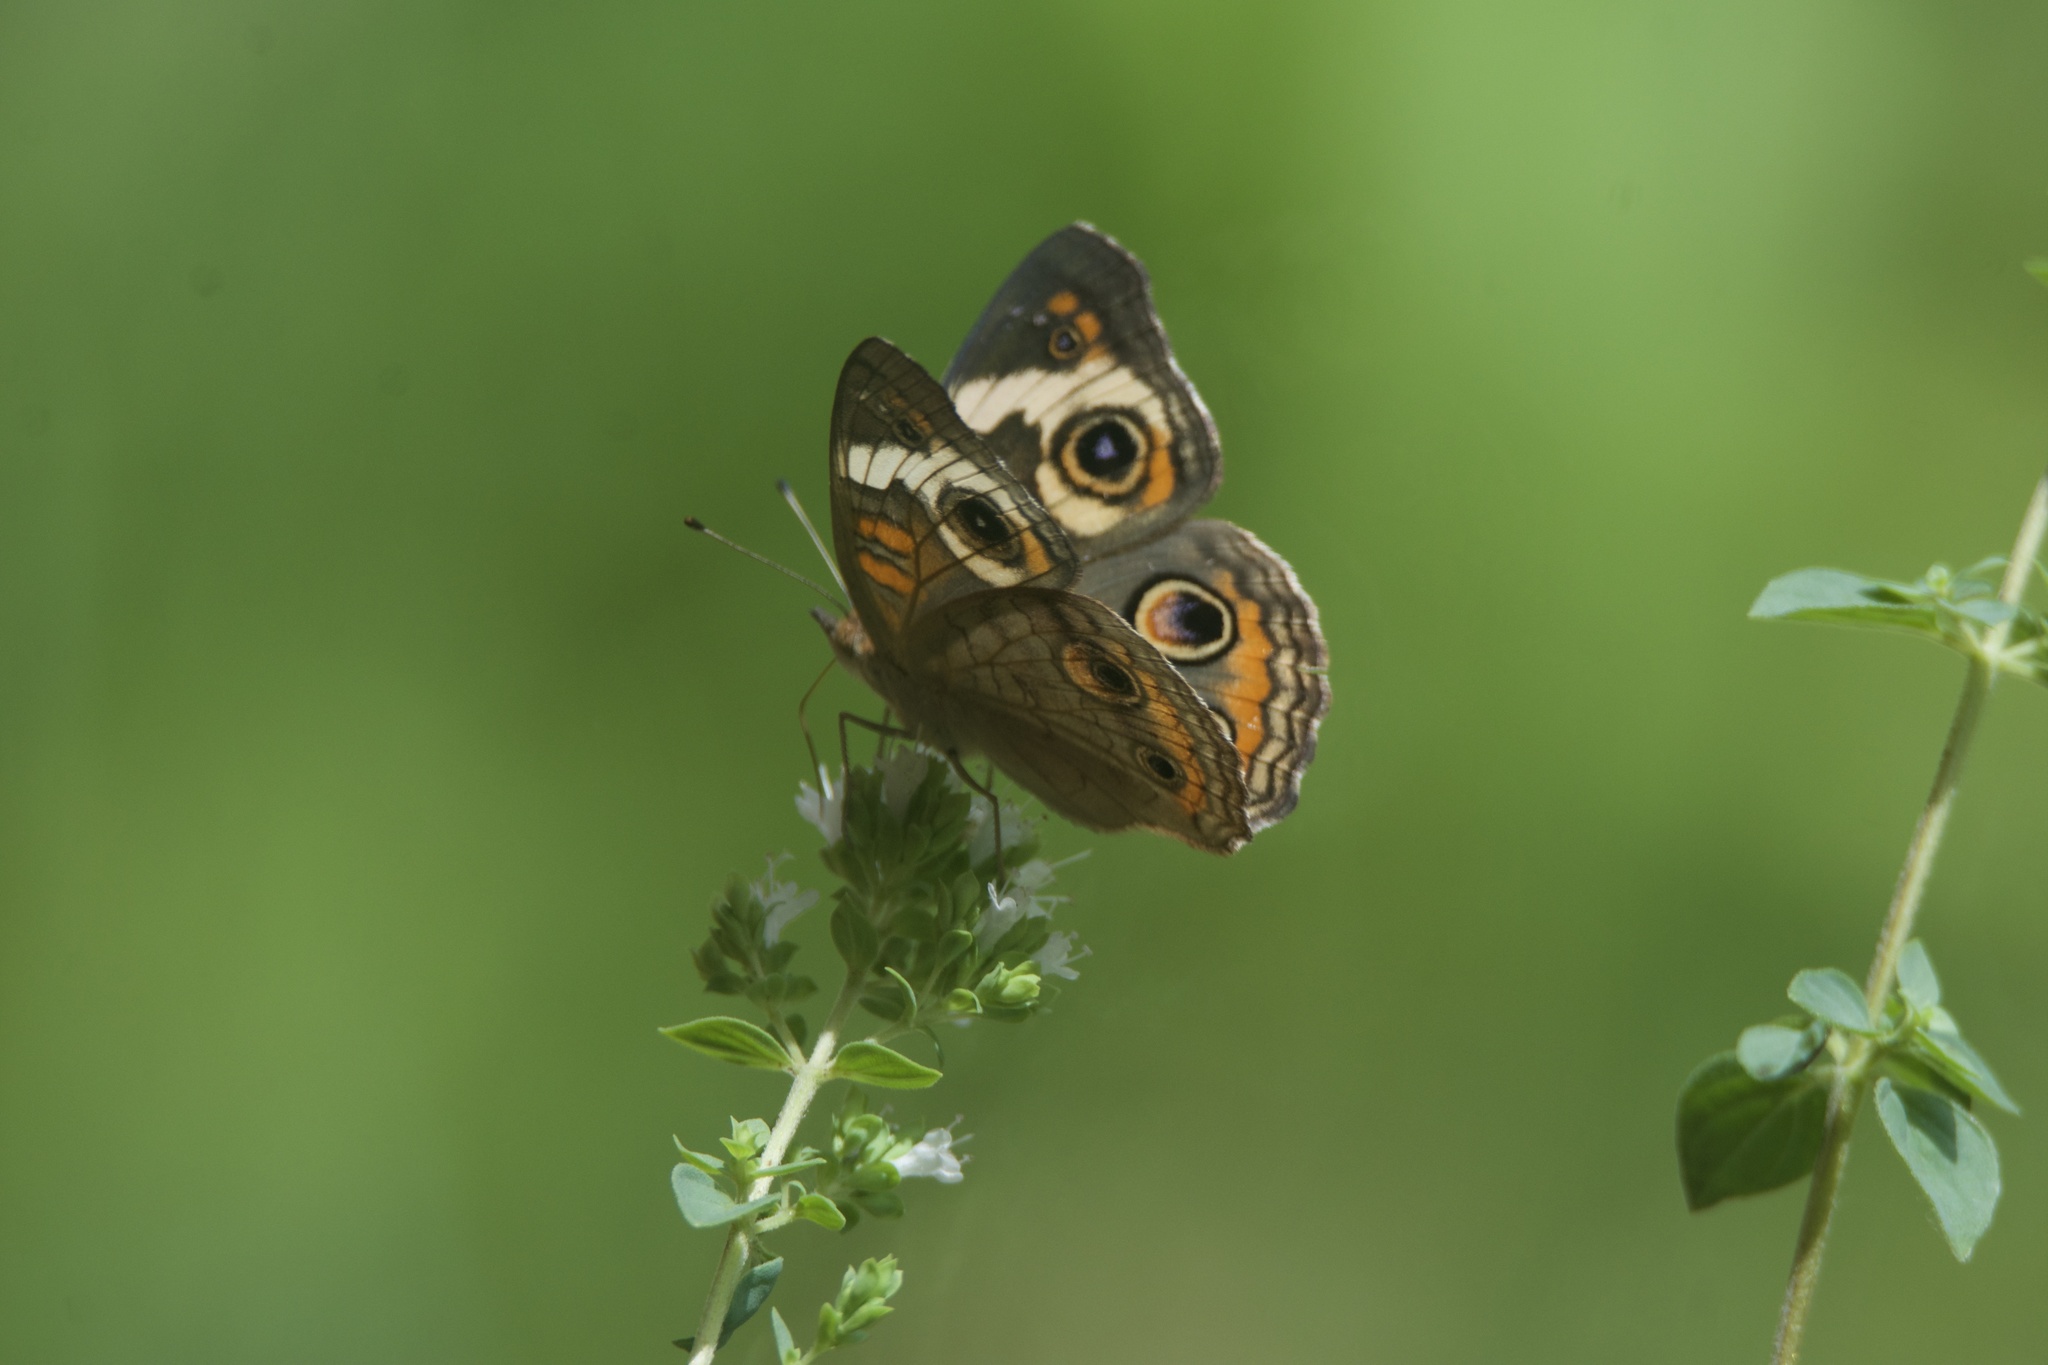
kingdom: Animalia
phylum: Arthropoda
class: Insecta
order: Lepidoptera
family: Nymphalidae
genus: Junonia
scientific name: Junonia coenia
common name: Common buckeye
